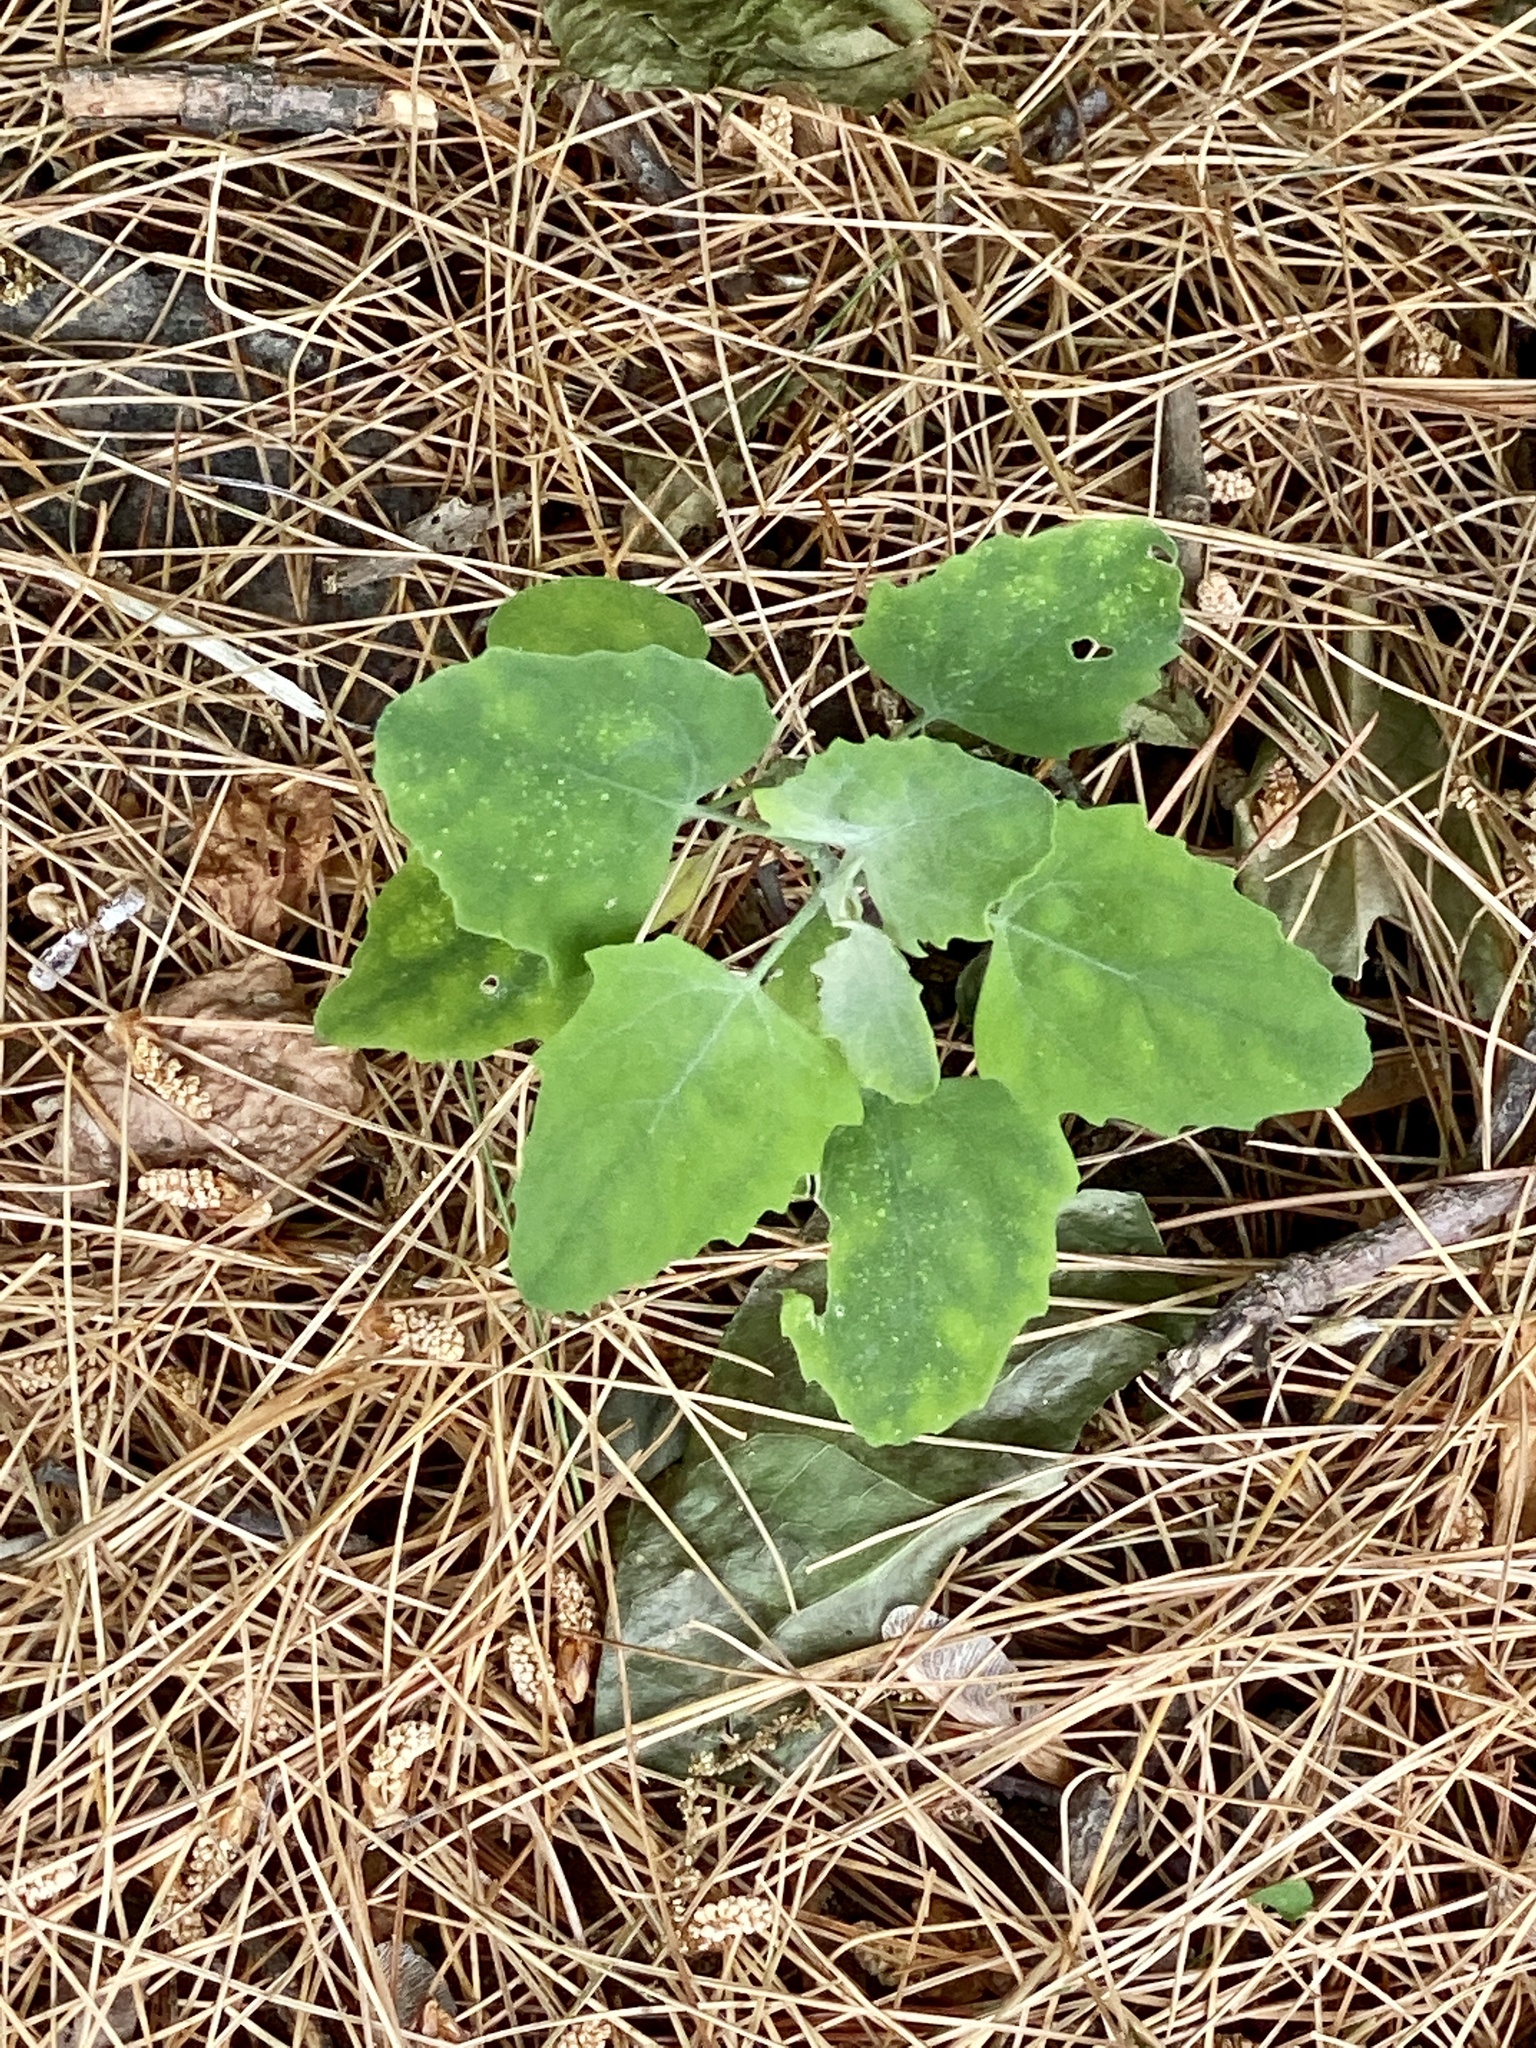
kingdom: Plantae
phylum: Tracheophyta
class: Magnoliopsida
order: Caryophyllales
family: Amaranthaceae
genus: Chenopodium
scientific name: Chenopodium album
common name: Fat-hen
